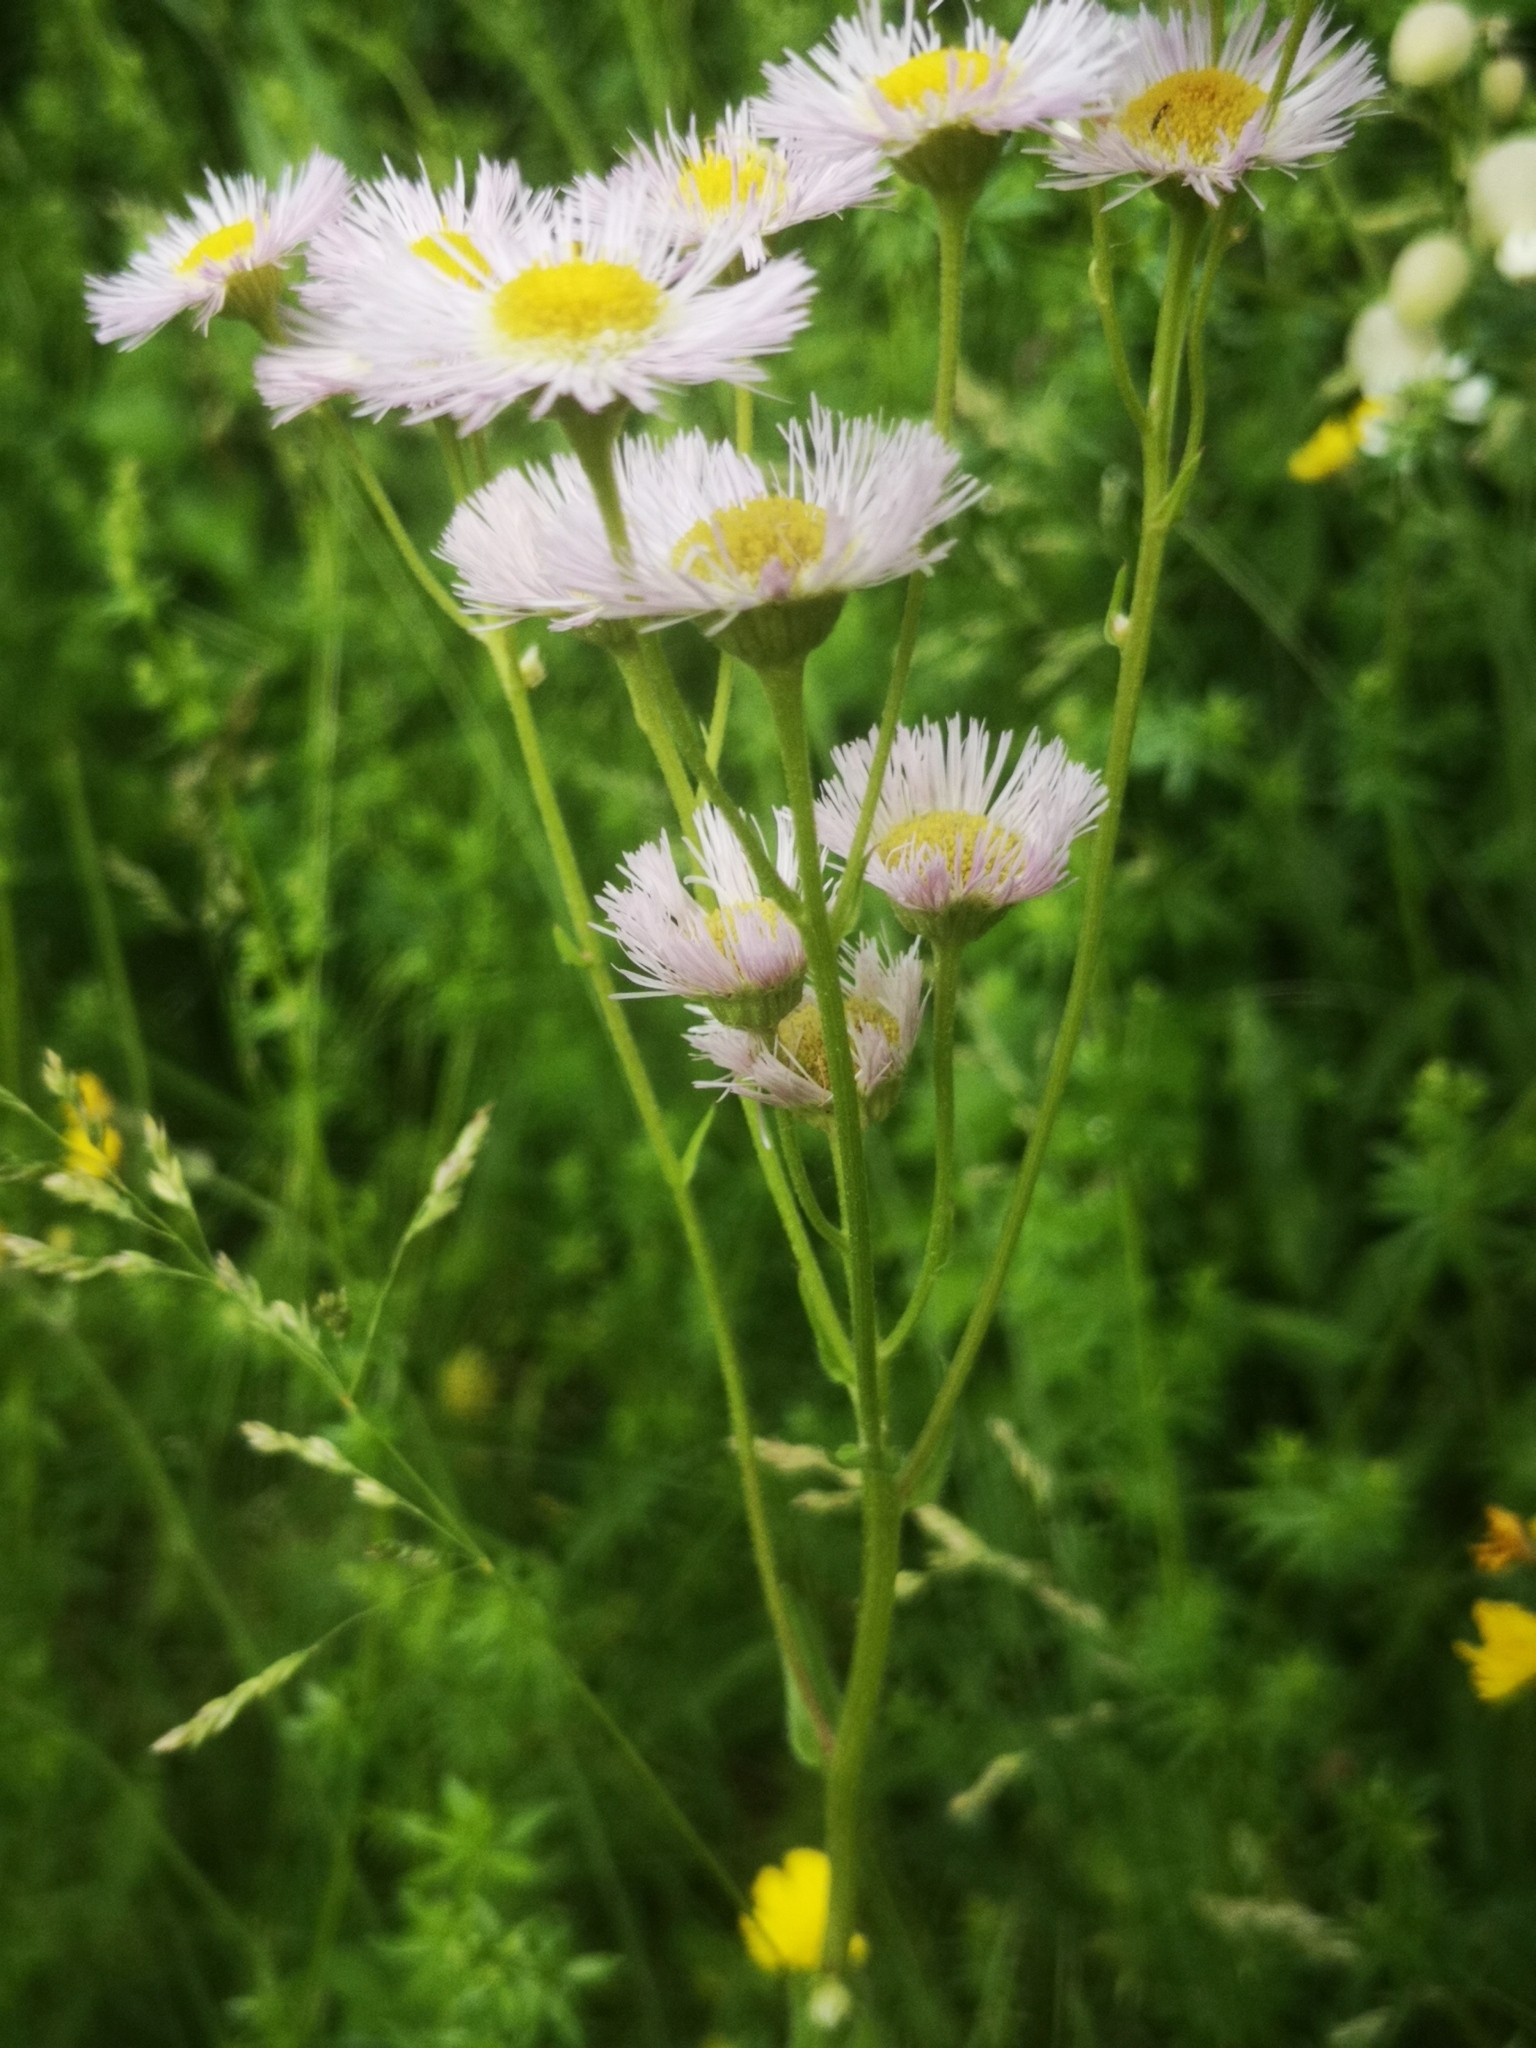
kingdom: Plantae
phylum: Tracheophyta
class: Magnoliopsida
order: Asterales
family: Asteraceae
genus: Erigeron
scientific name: Erigeron philadelphicus
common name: Robin's-plantain
